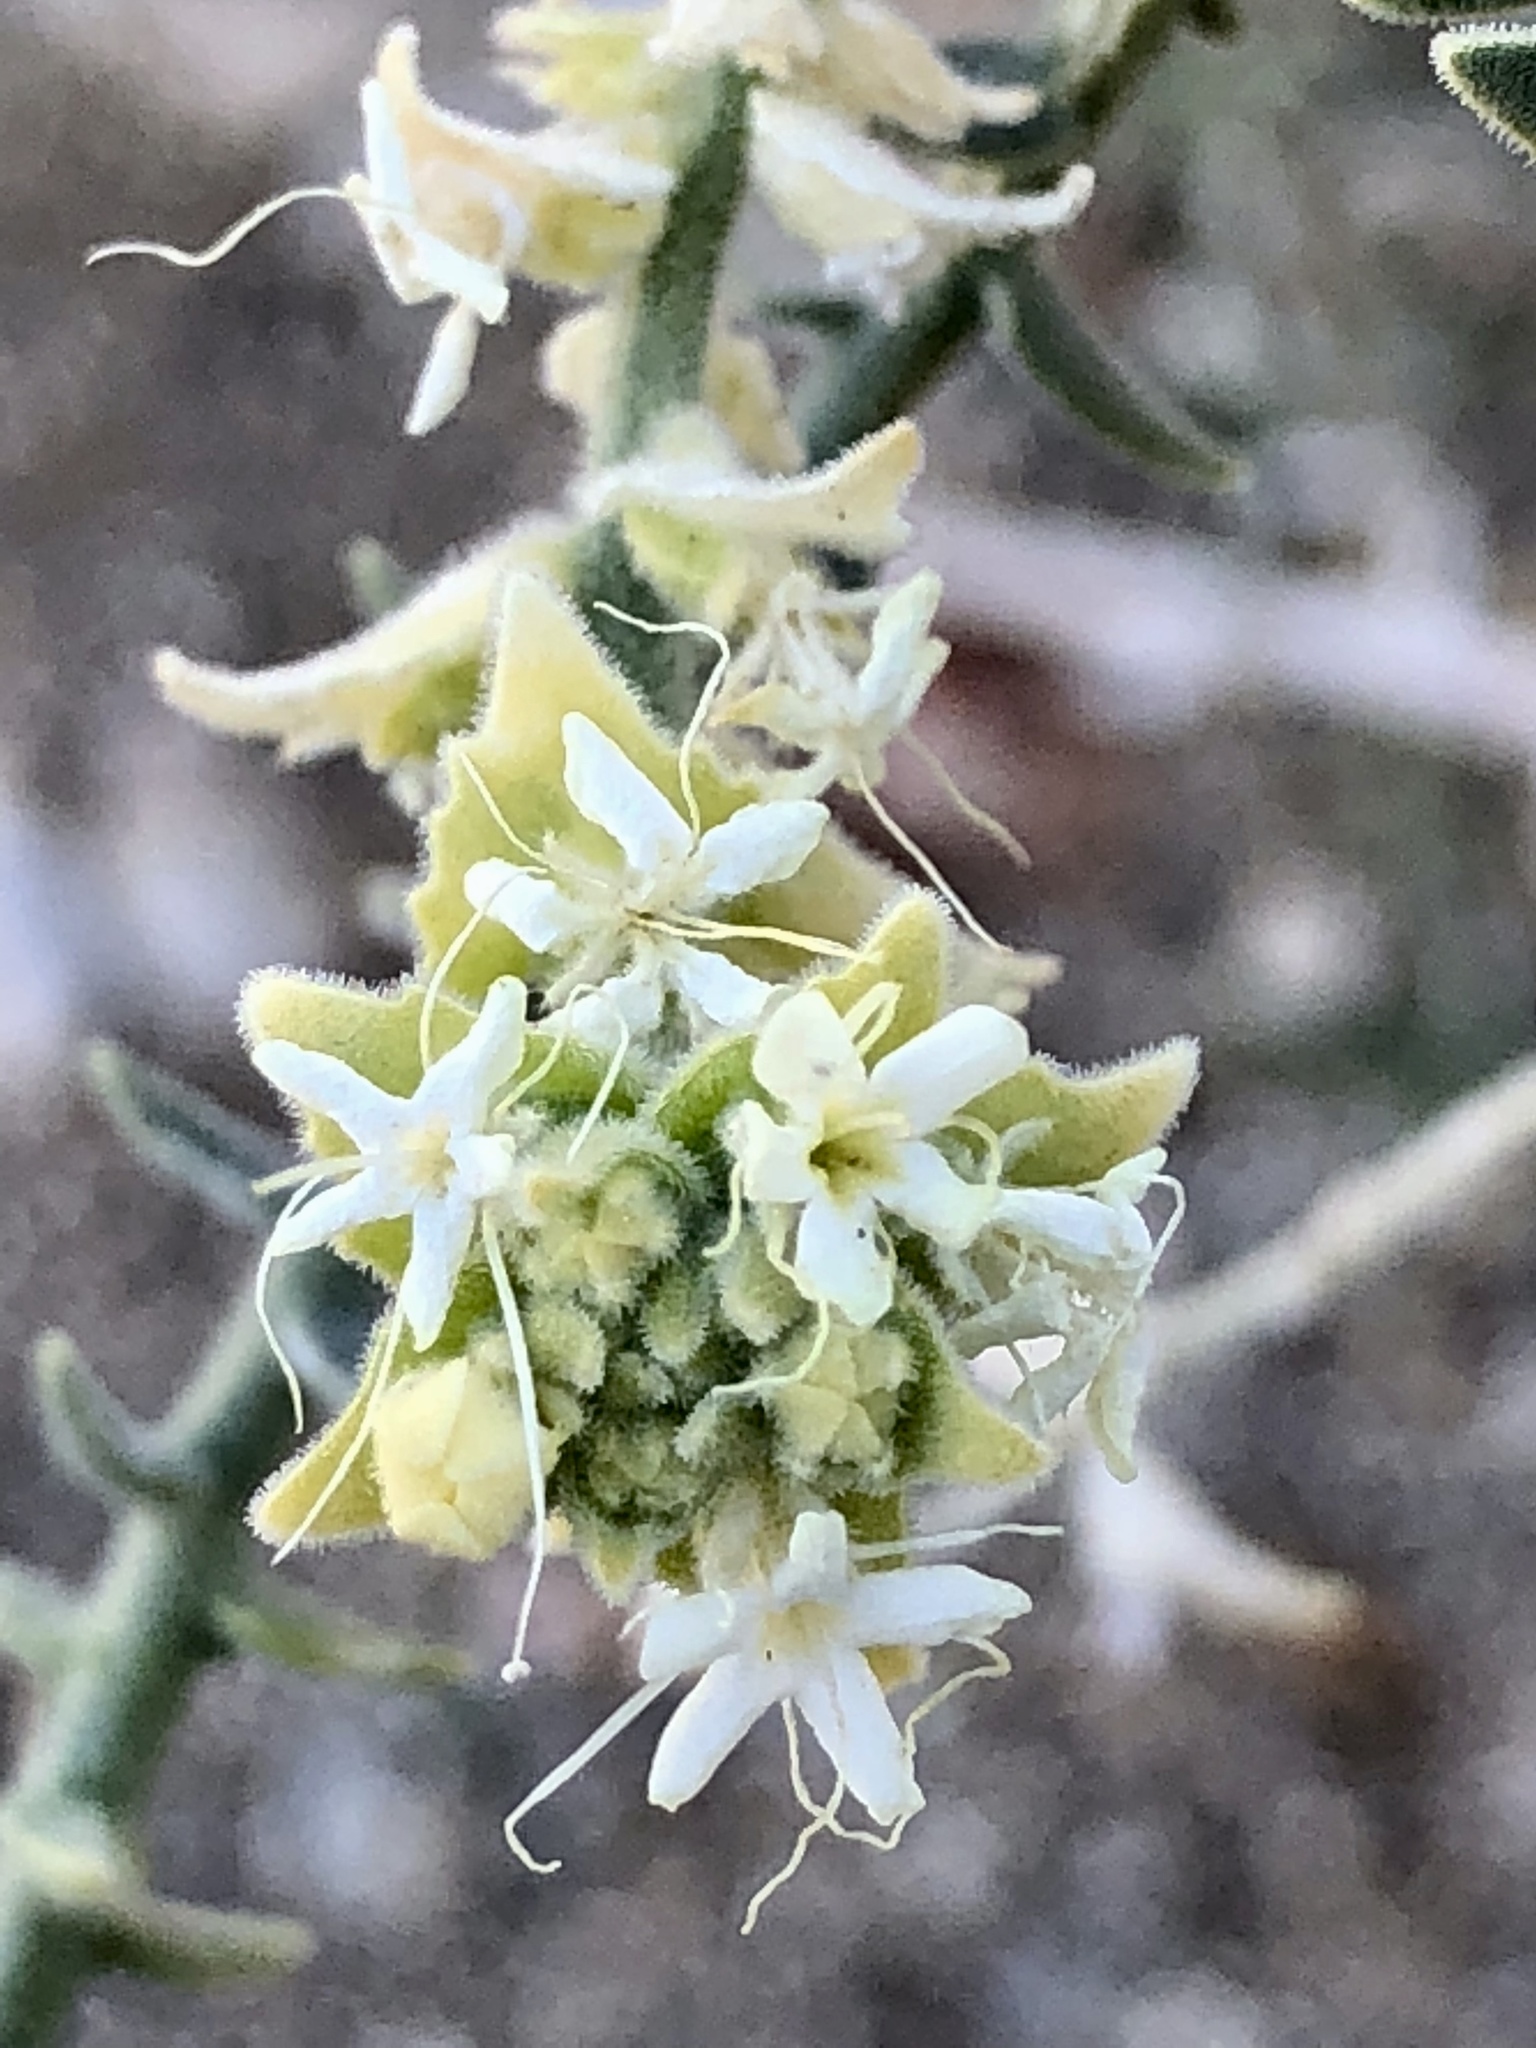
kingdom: Plantae
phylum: Tracheophyta
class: Magnoliopsida
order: Cornales
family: Loasaceae
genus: Petalonyx
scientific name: Petalonyx thurberi
